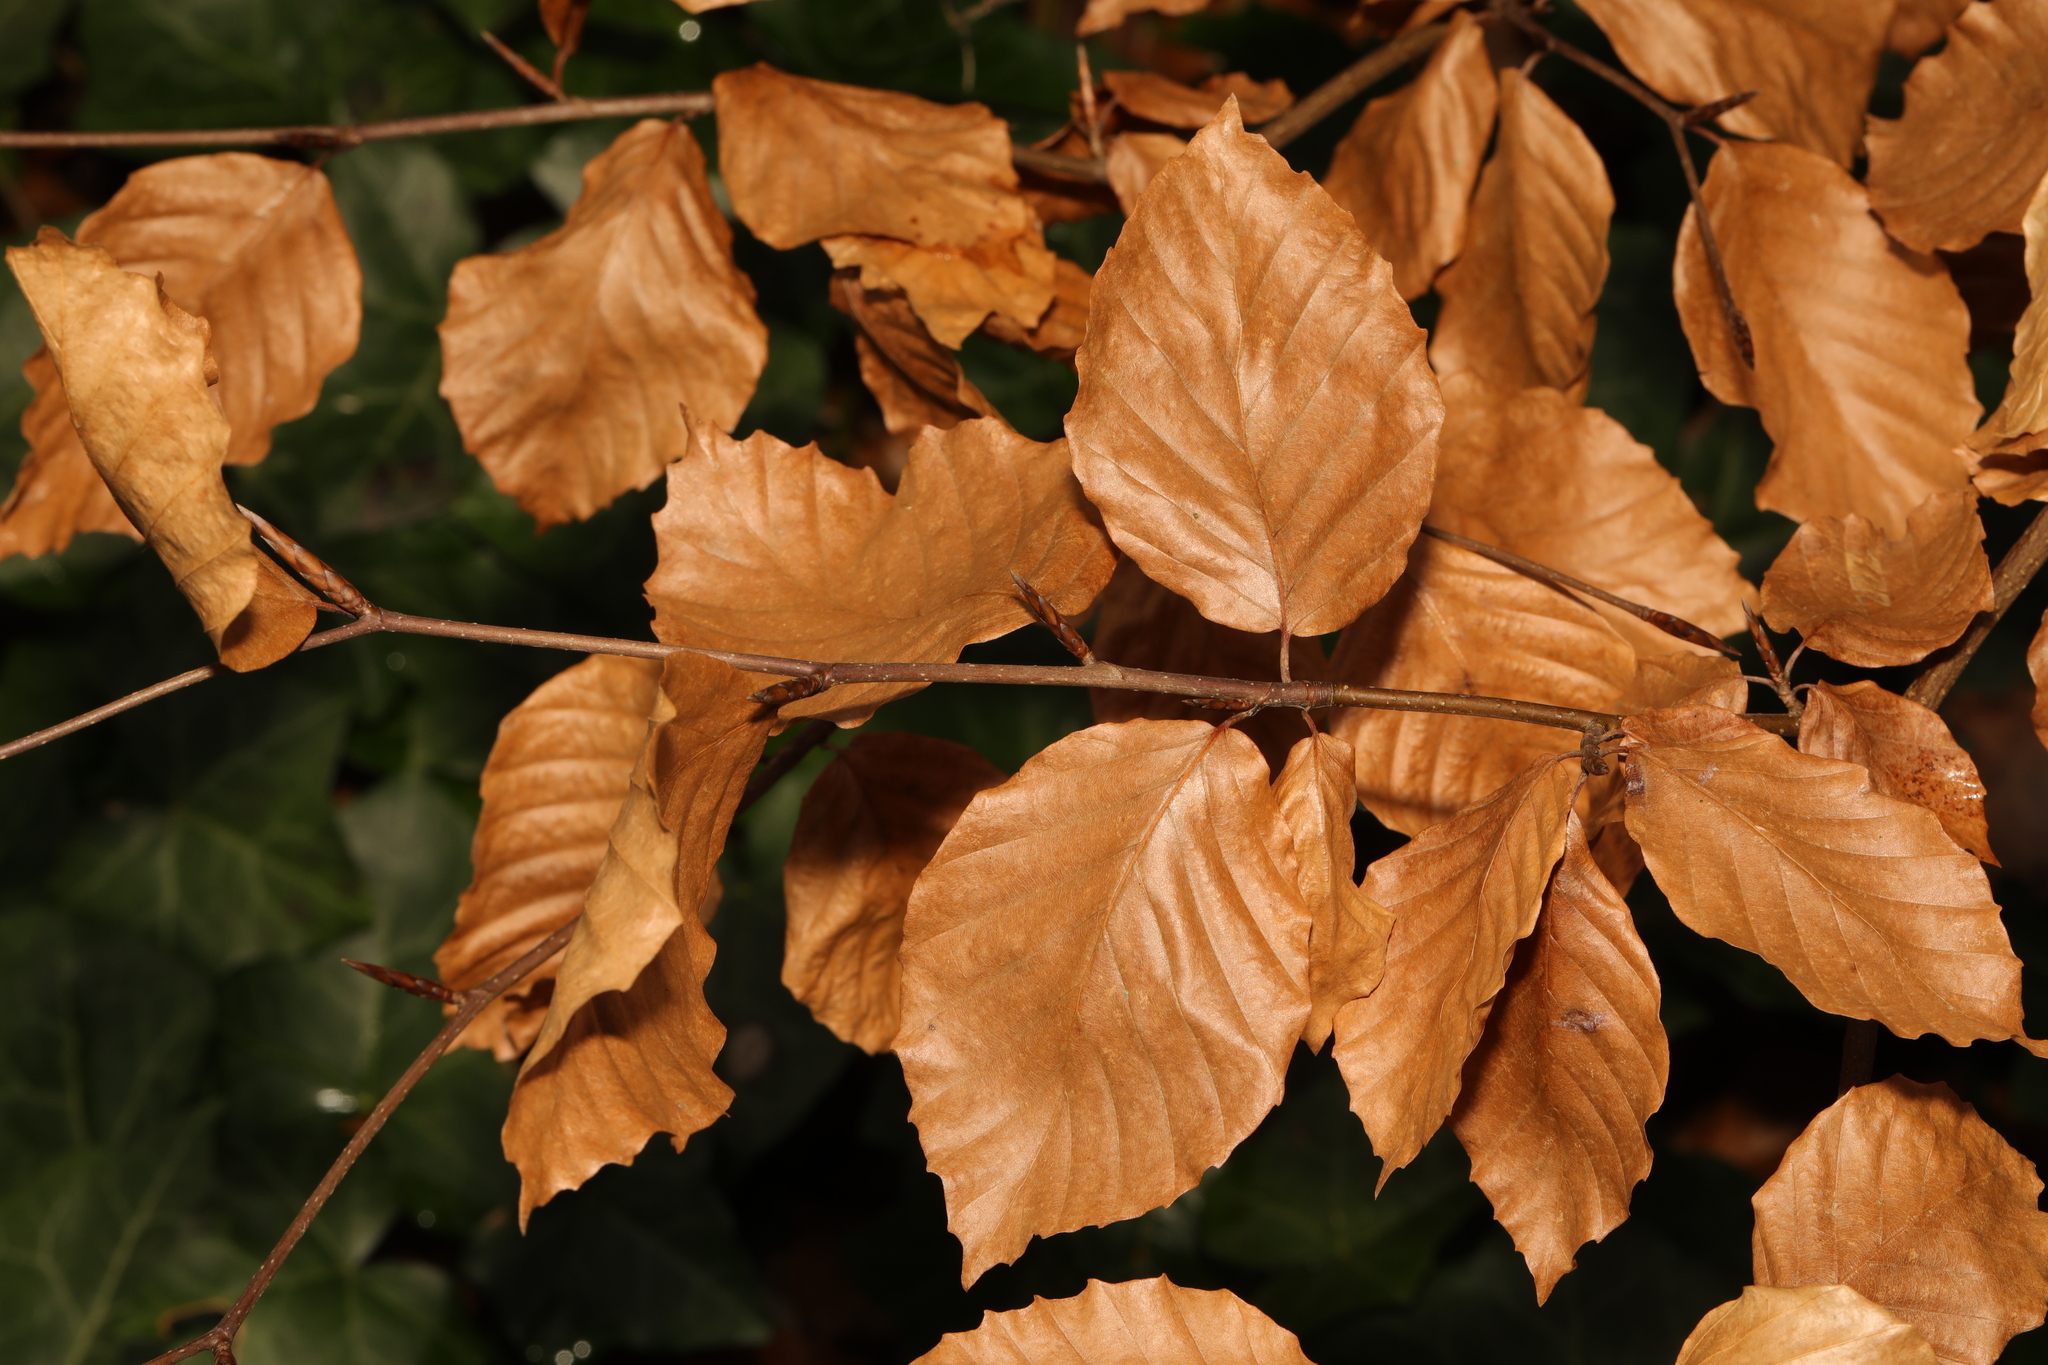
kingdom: Plantae
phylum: Tracheophyta
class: Magnoliopsida
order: Fagales
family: Fagaceae
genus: Fagus
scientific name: Fagus sylvatica
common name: Beech
